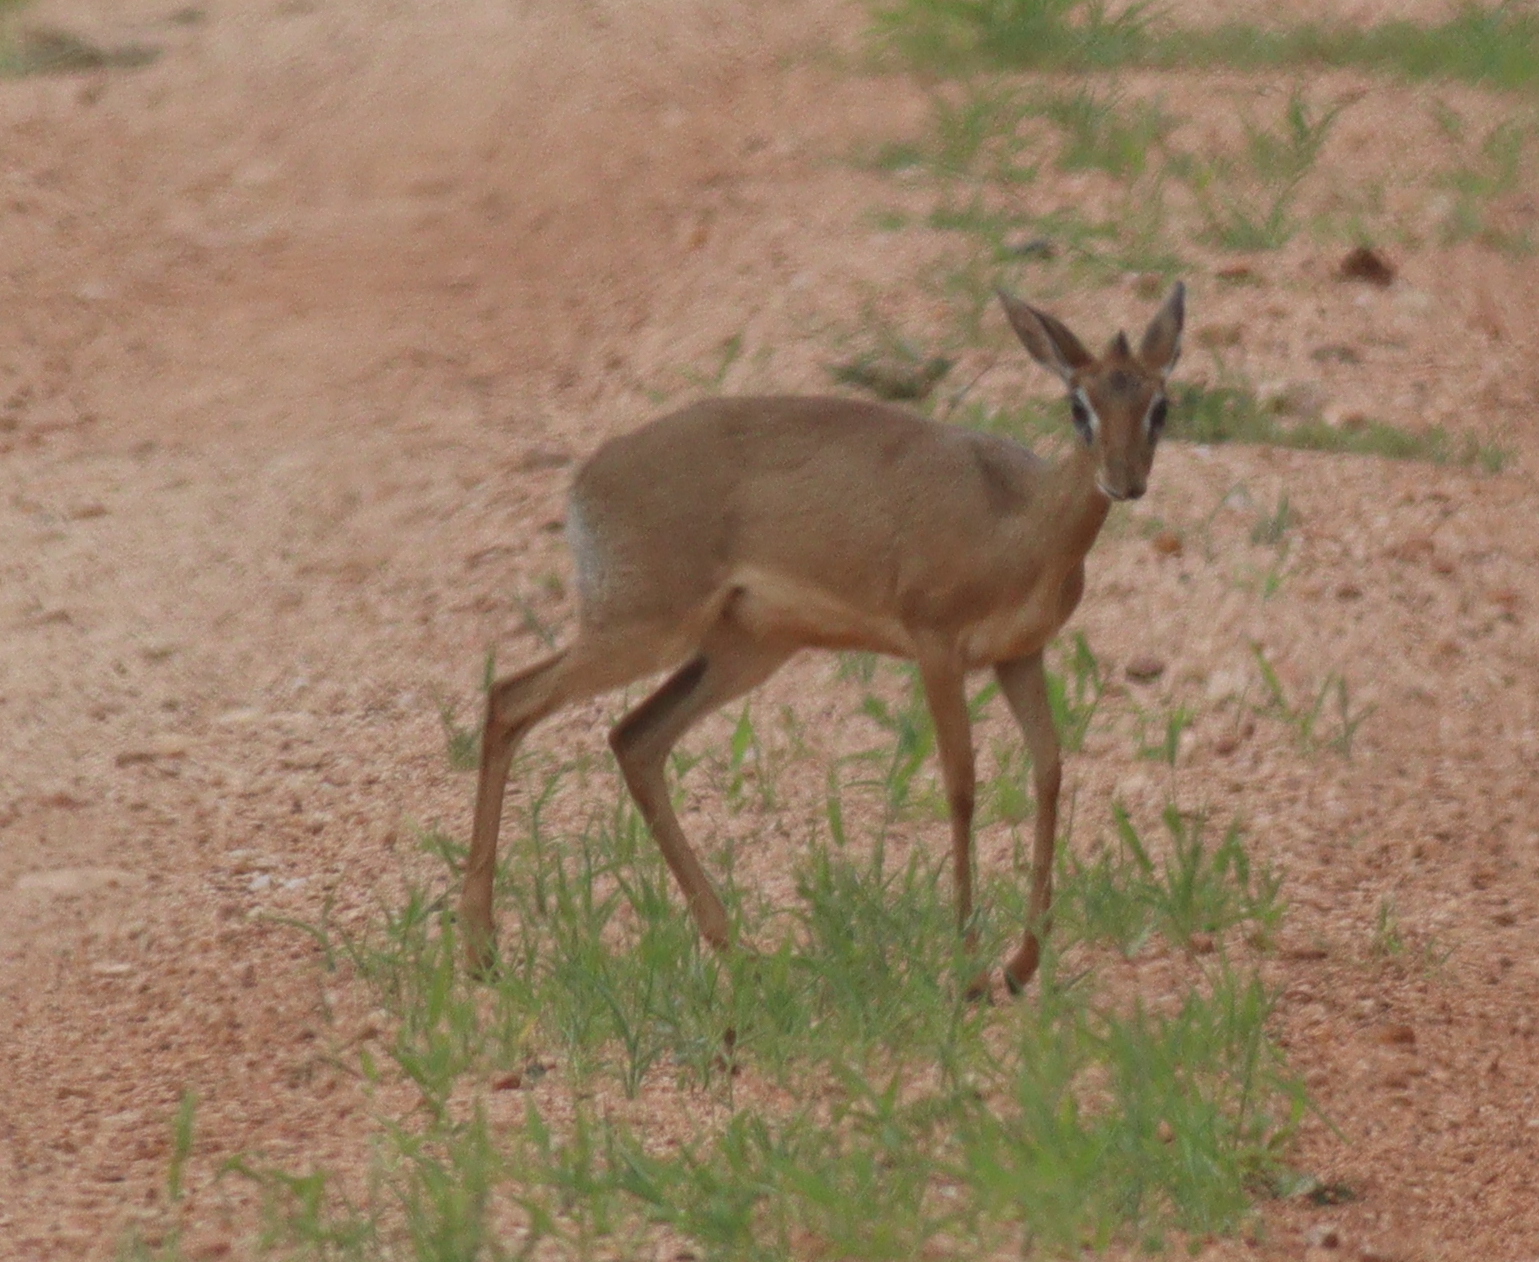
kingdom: Animalia
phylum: Chordata
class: Mammalia
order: Artiodactyla
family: Bovidae
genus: Madoqua
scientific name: Madoqua kirkii
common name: Kirk's dik-dik
